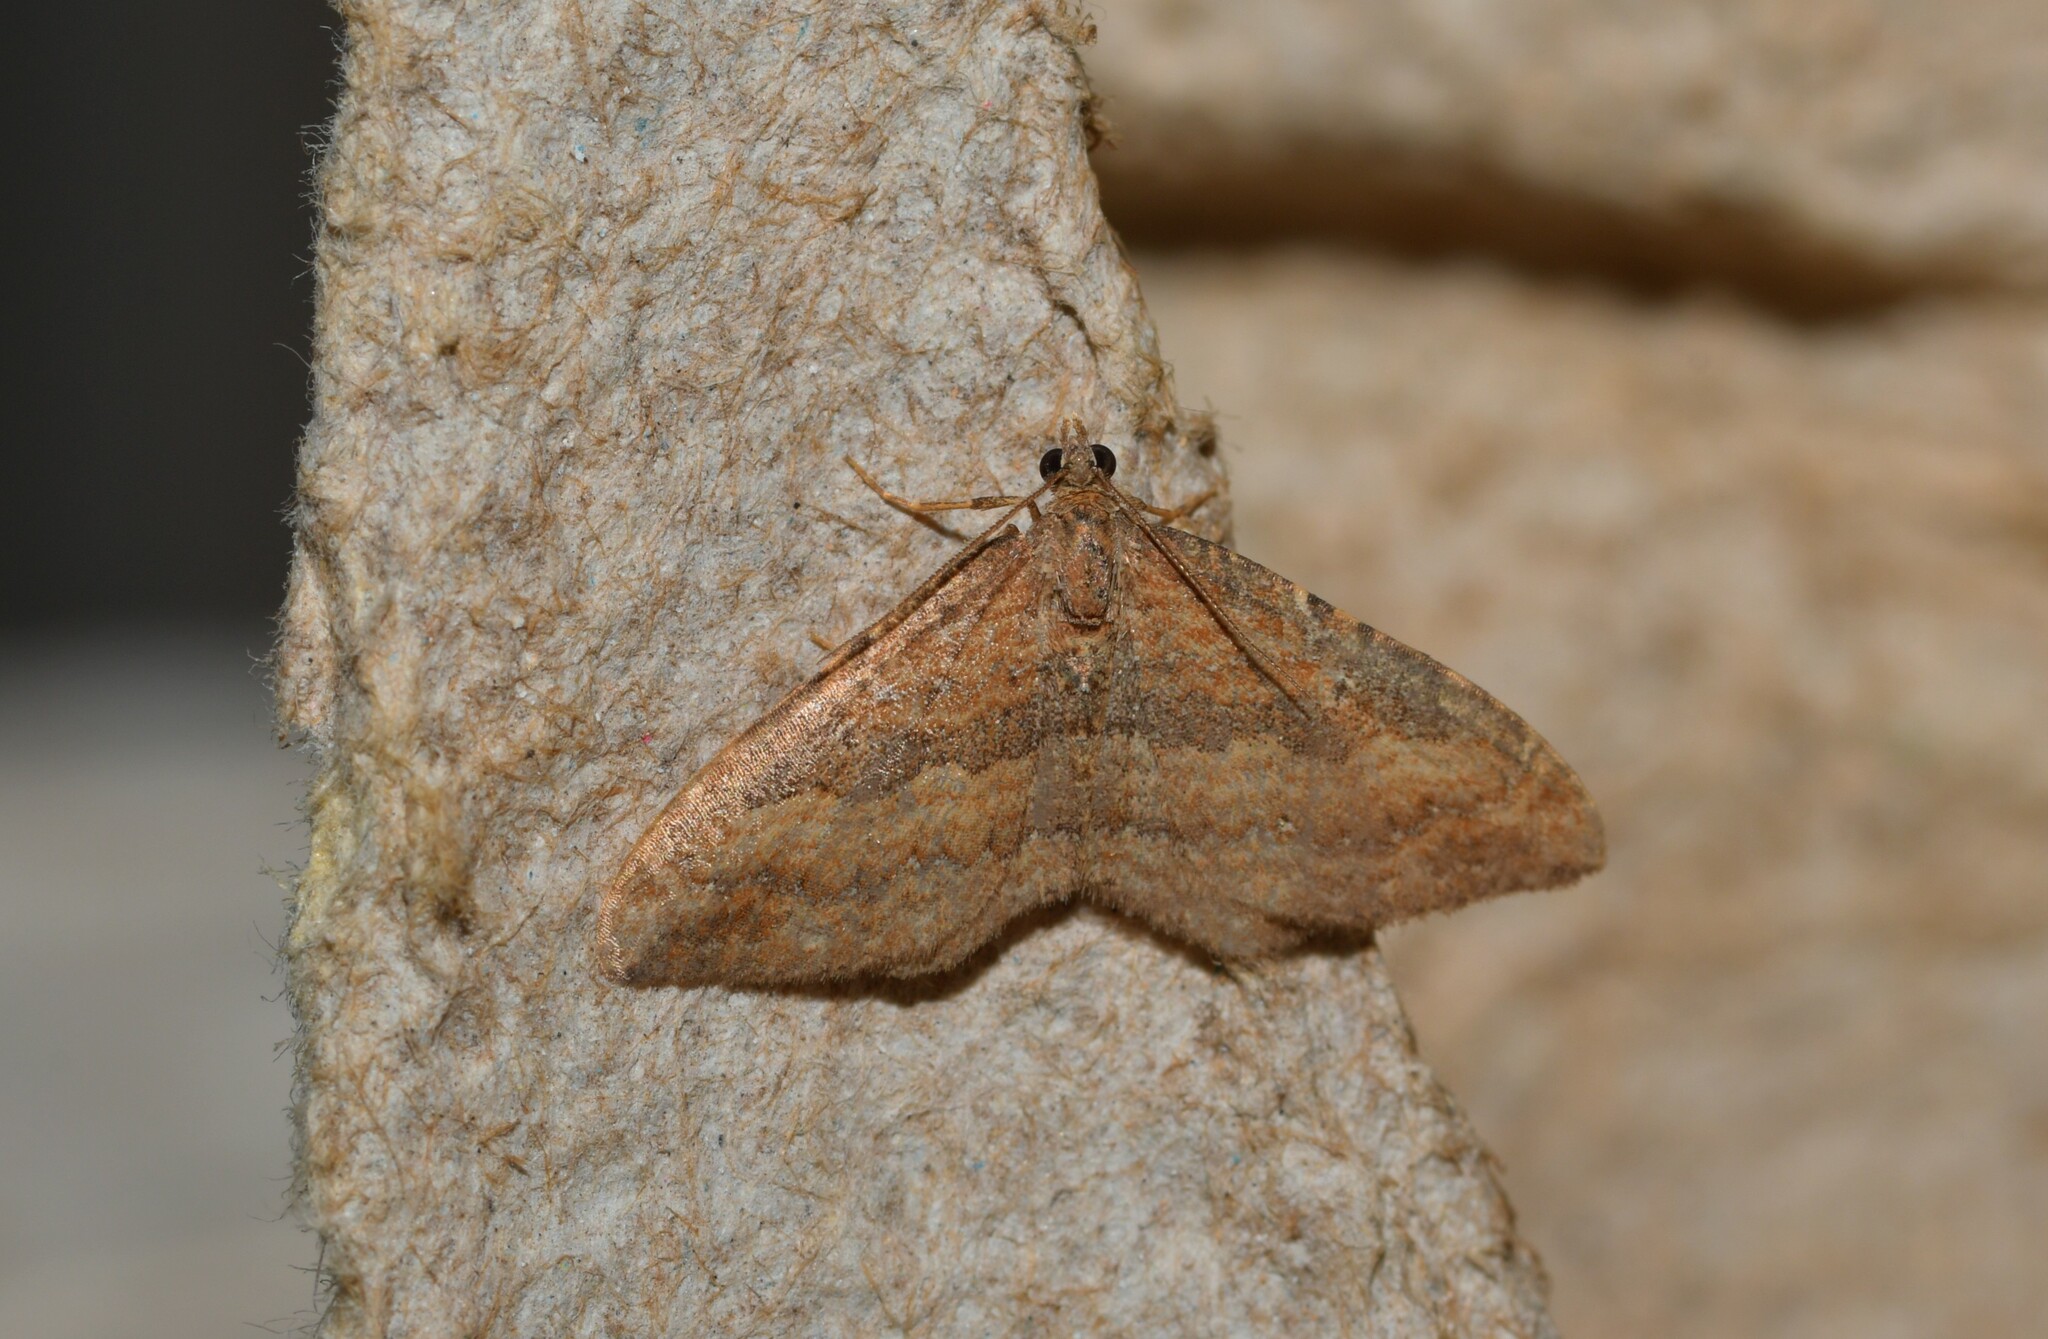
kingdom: Animalia
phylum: Arthropoda
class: Insecta
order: Lepidoptera
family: Geometridae
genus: Orthonama
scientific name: Orthonama obstipata
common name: The gem
